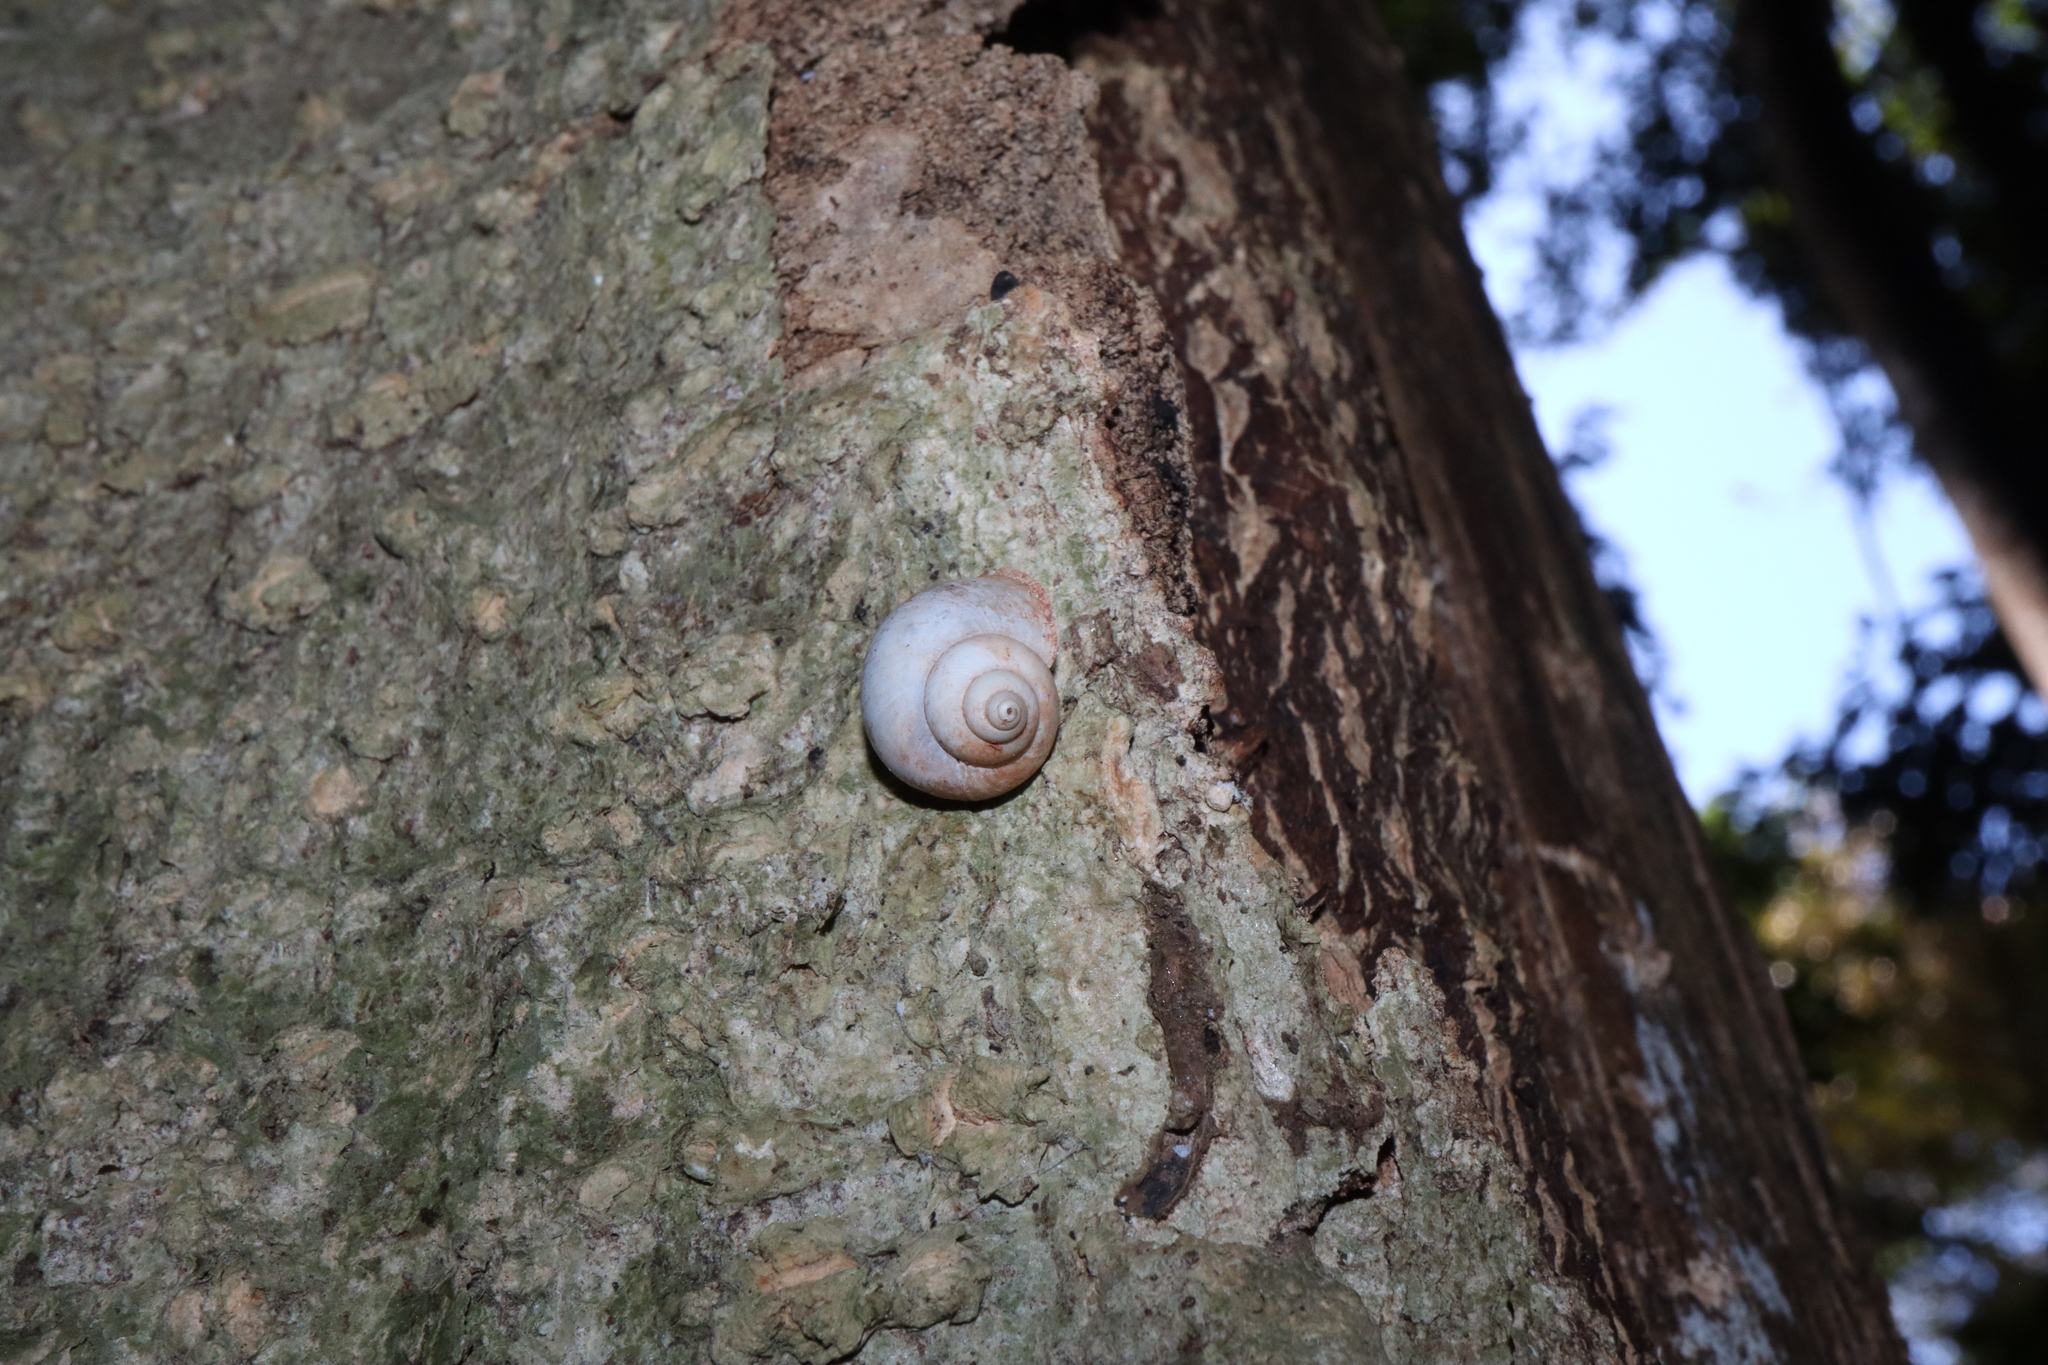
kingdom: Animalia
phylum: Mollusca
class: Gastropoda
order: Architaenioglossa
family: Cyclophoridae
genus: Leptopoma
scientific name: Leptopoma perlucidum
